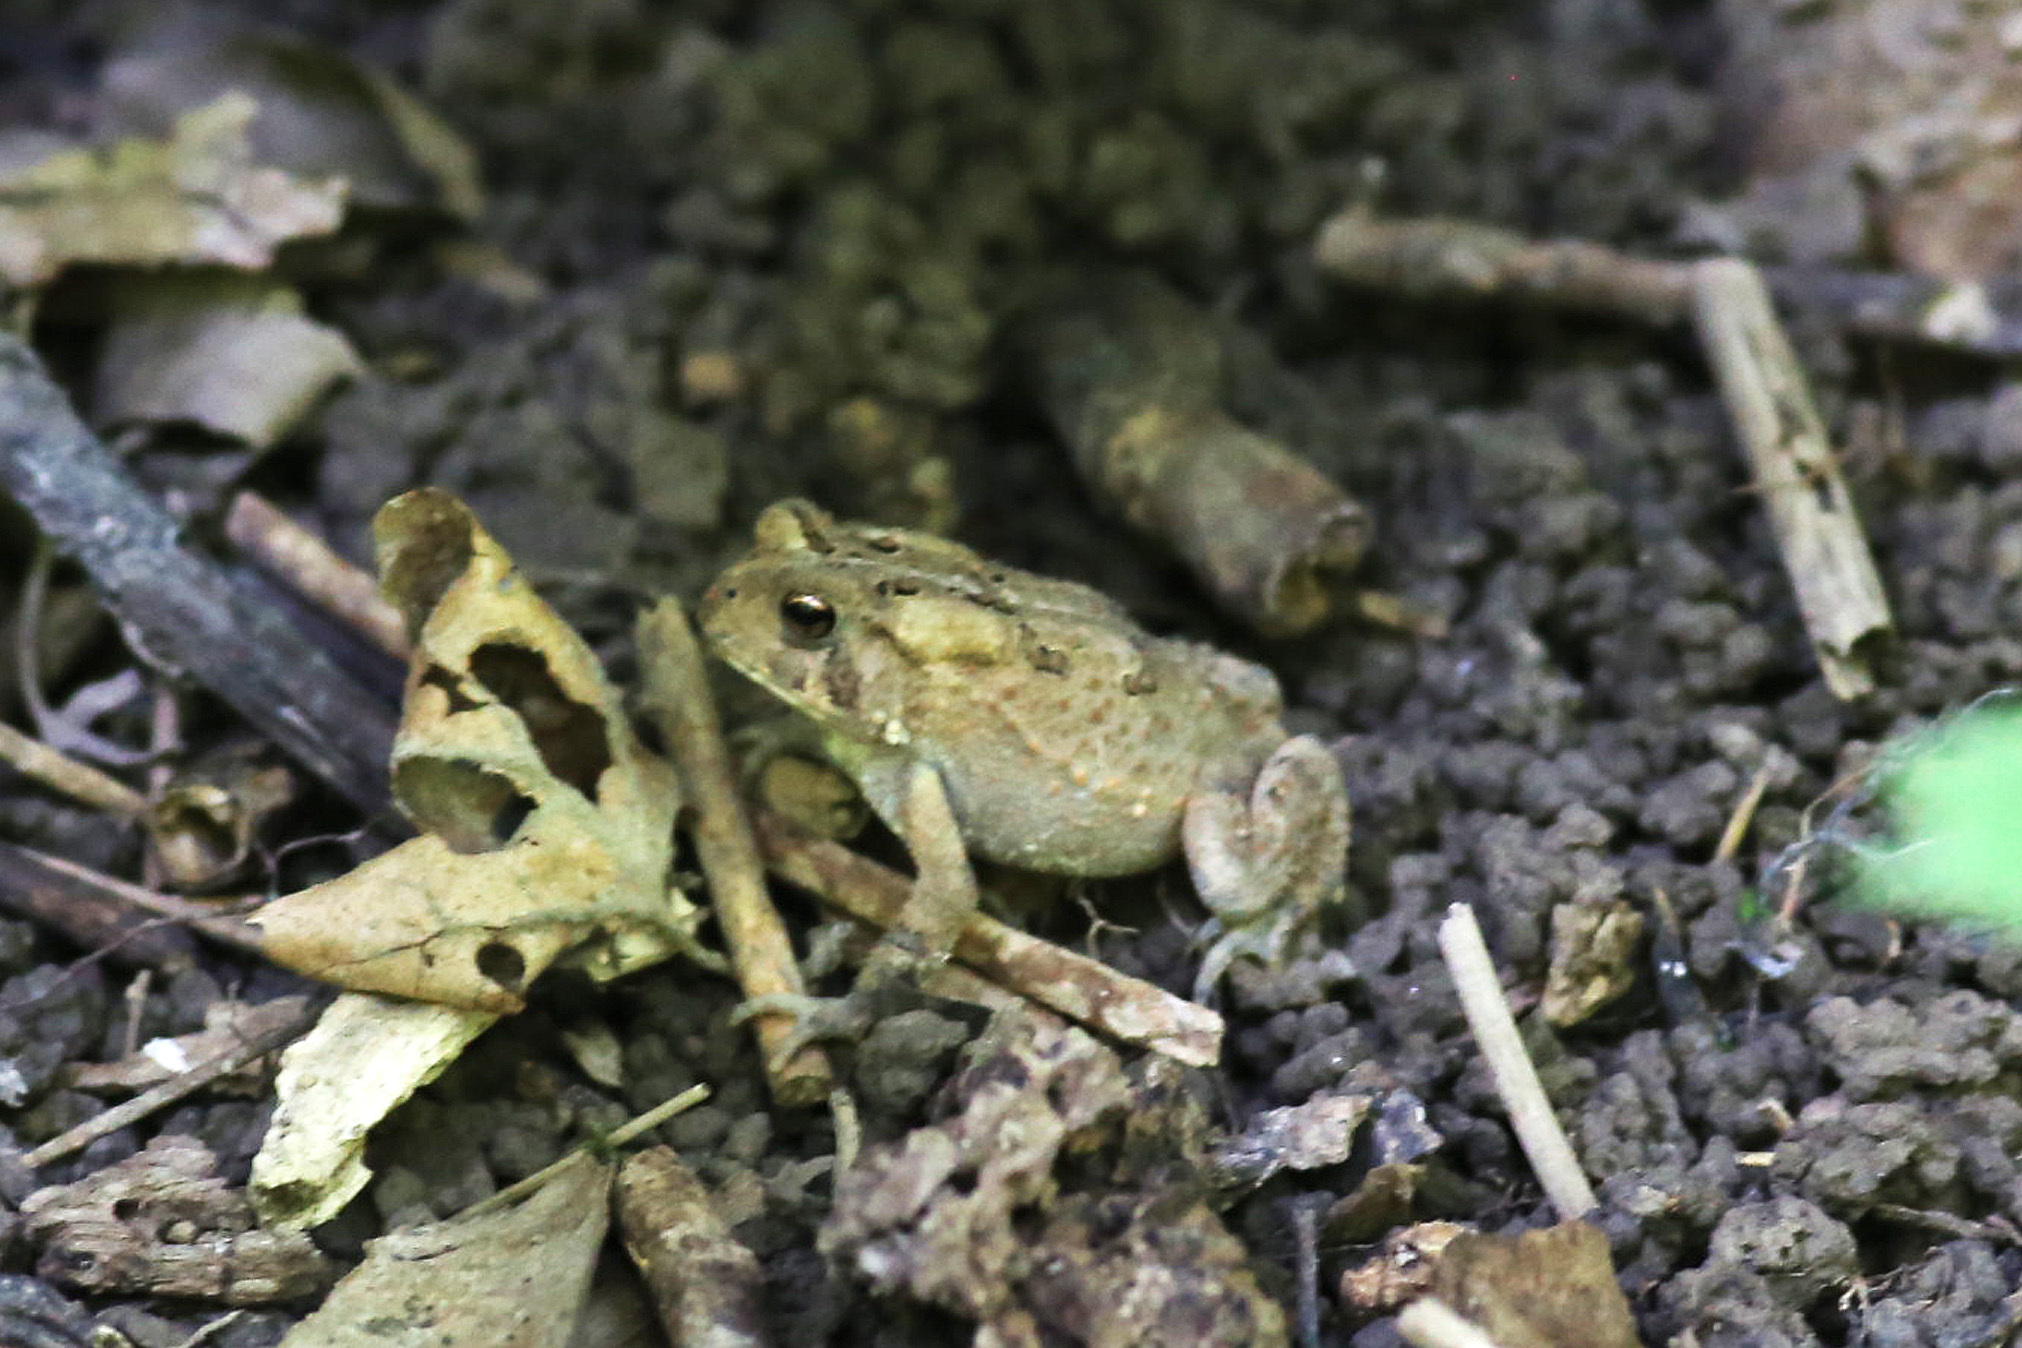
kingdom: Animalia
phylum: Chordata
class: Amphibia
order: Anura
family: Bufonidae
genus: Anaxyrus
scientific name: Anaxyrus americanus
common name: American toad
